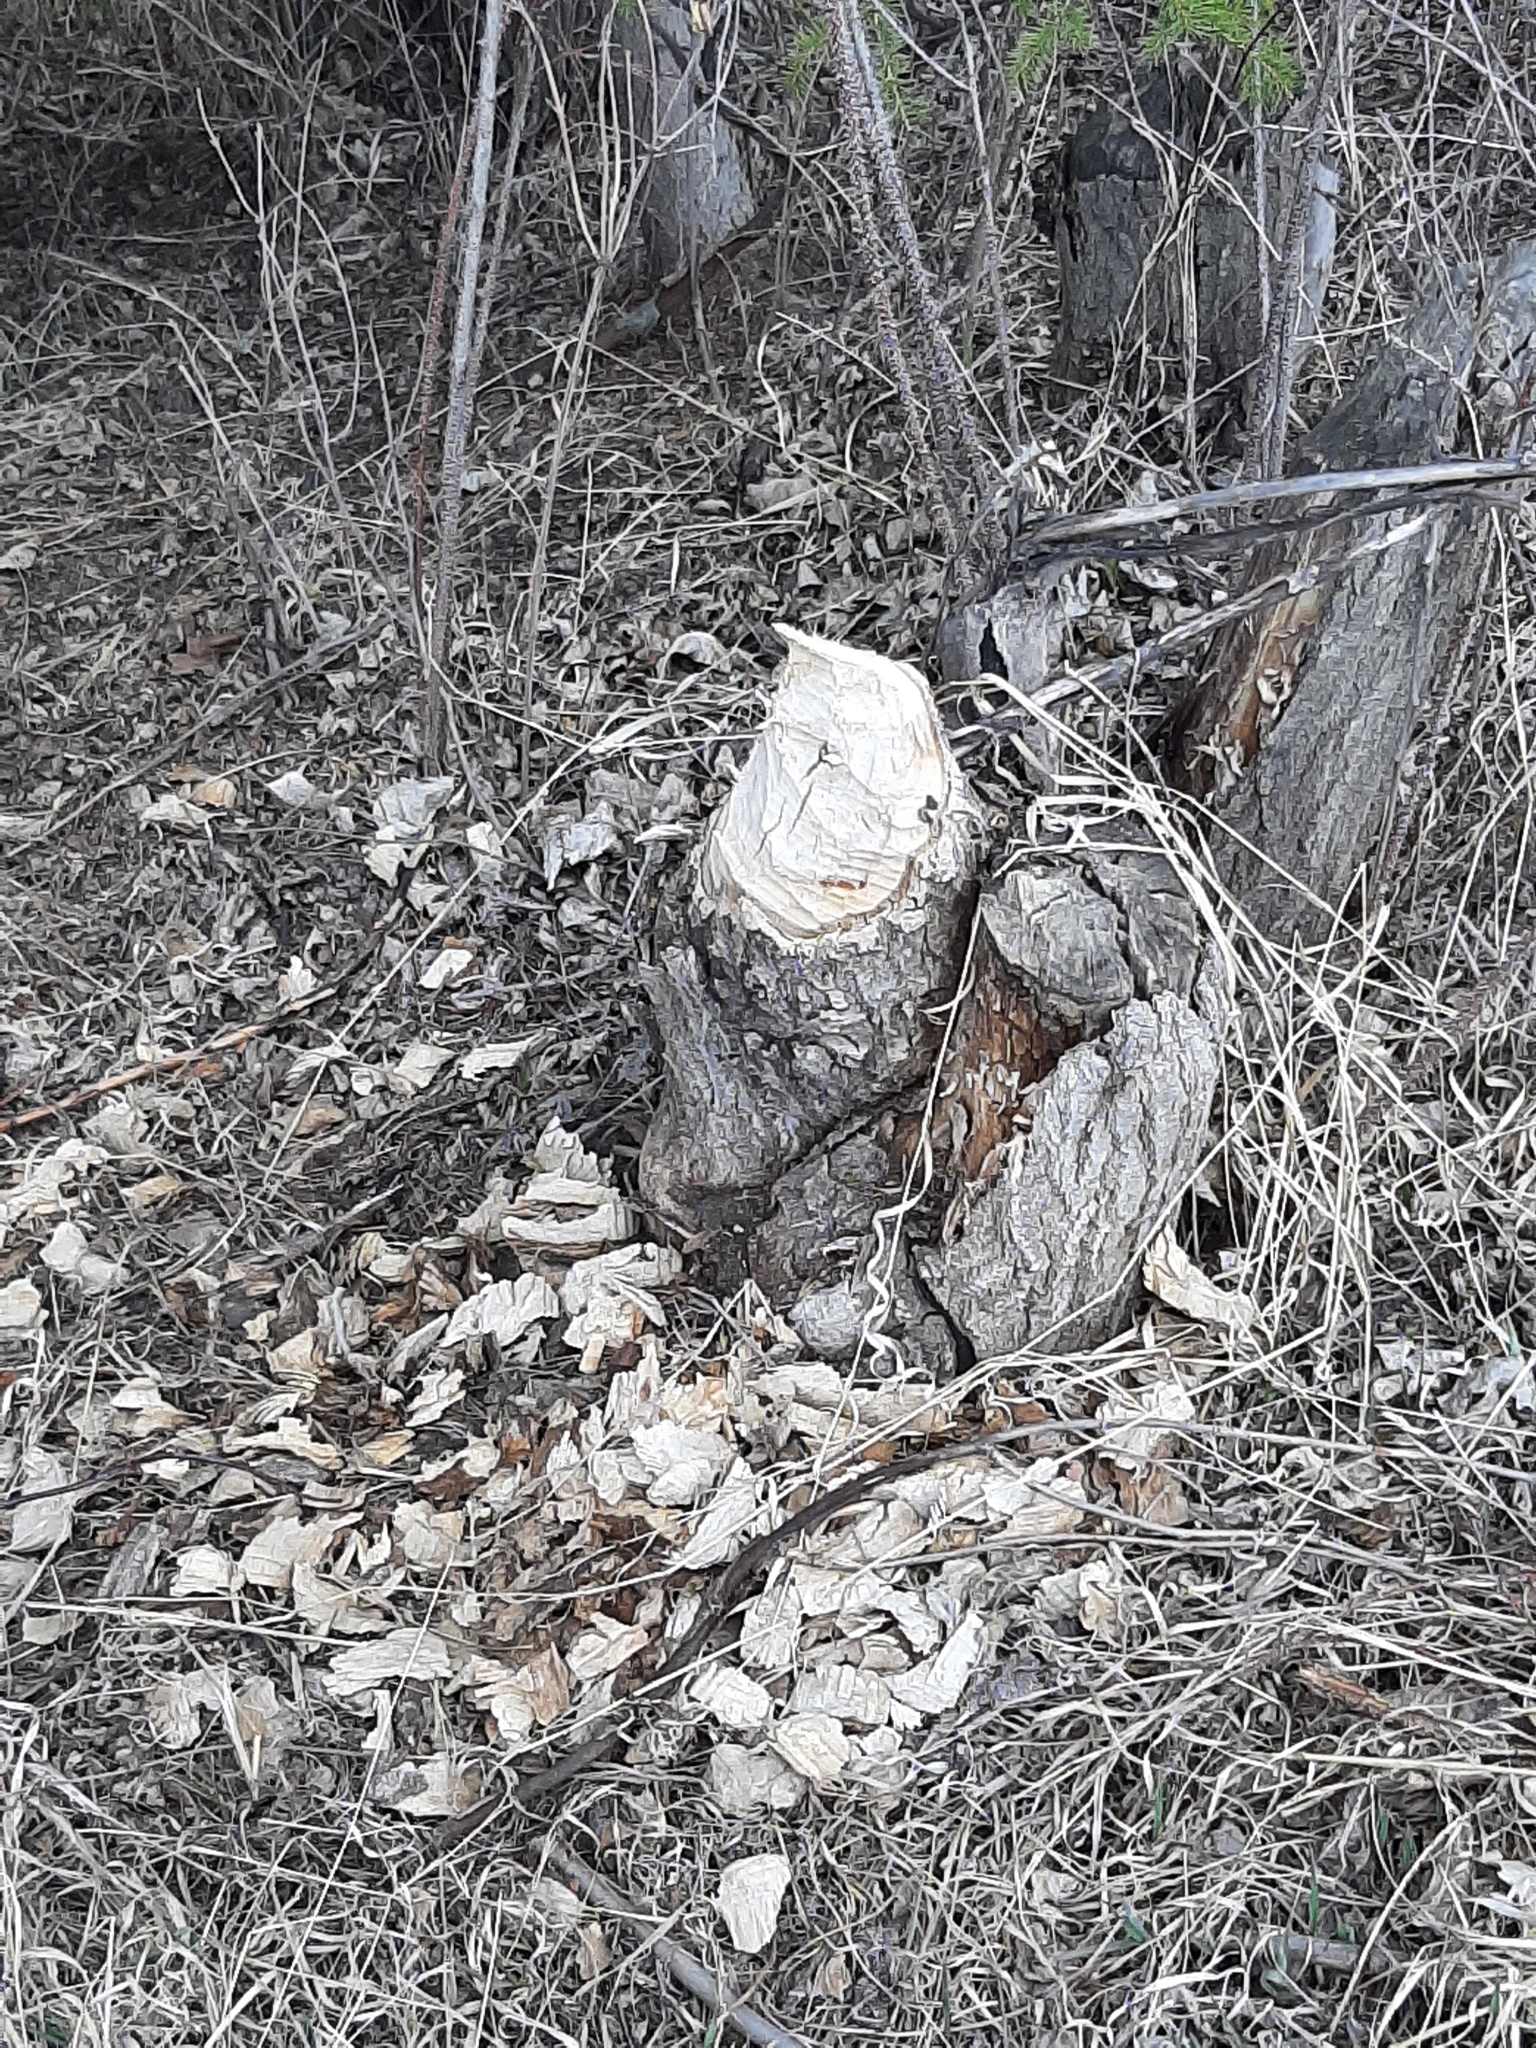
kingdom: Animalia
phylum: Chordata
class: Mammalia
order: Rodentia
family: Castoridae
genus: Castor
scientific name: Castor canadensis
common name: American beaver
